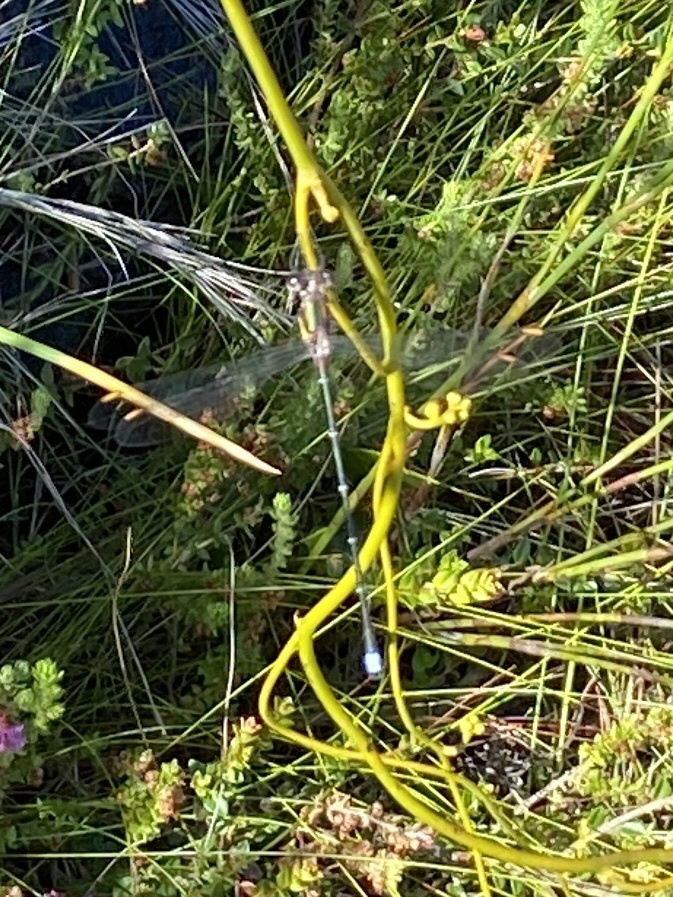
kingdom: Animalia
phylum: Arthropoda
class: Insecta
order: Odonata
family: Synlestidae
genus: Chlorolestes
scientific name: Chlorolestes conspicuus
